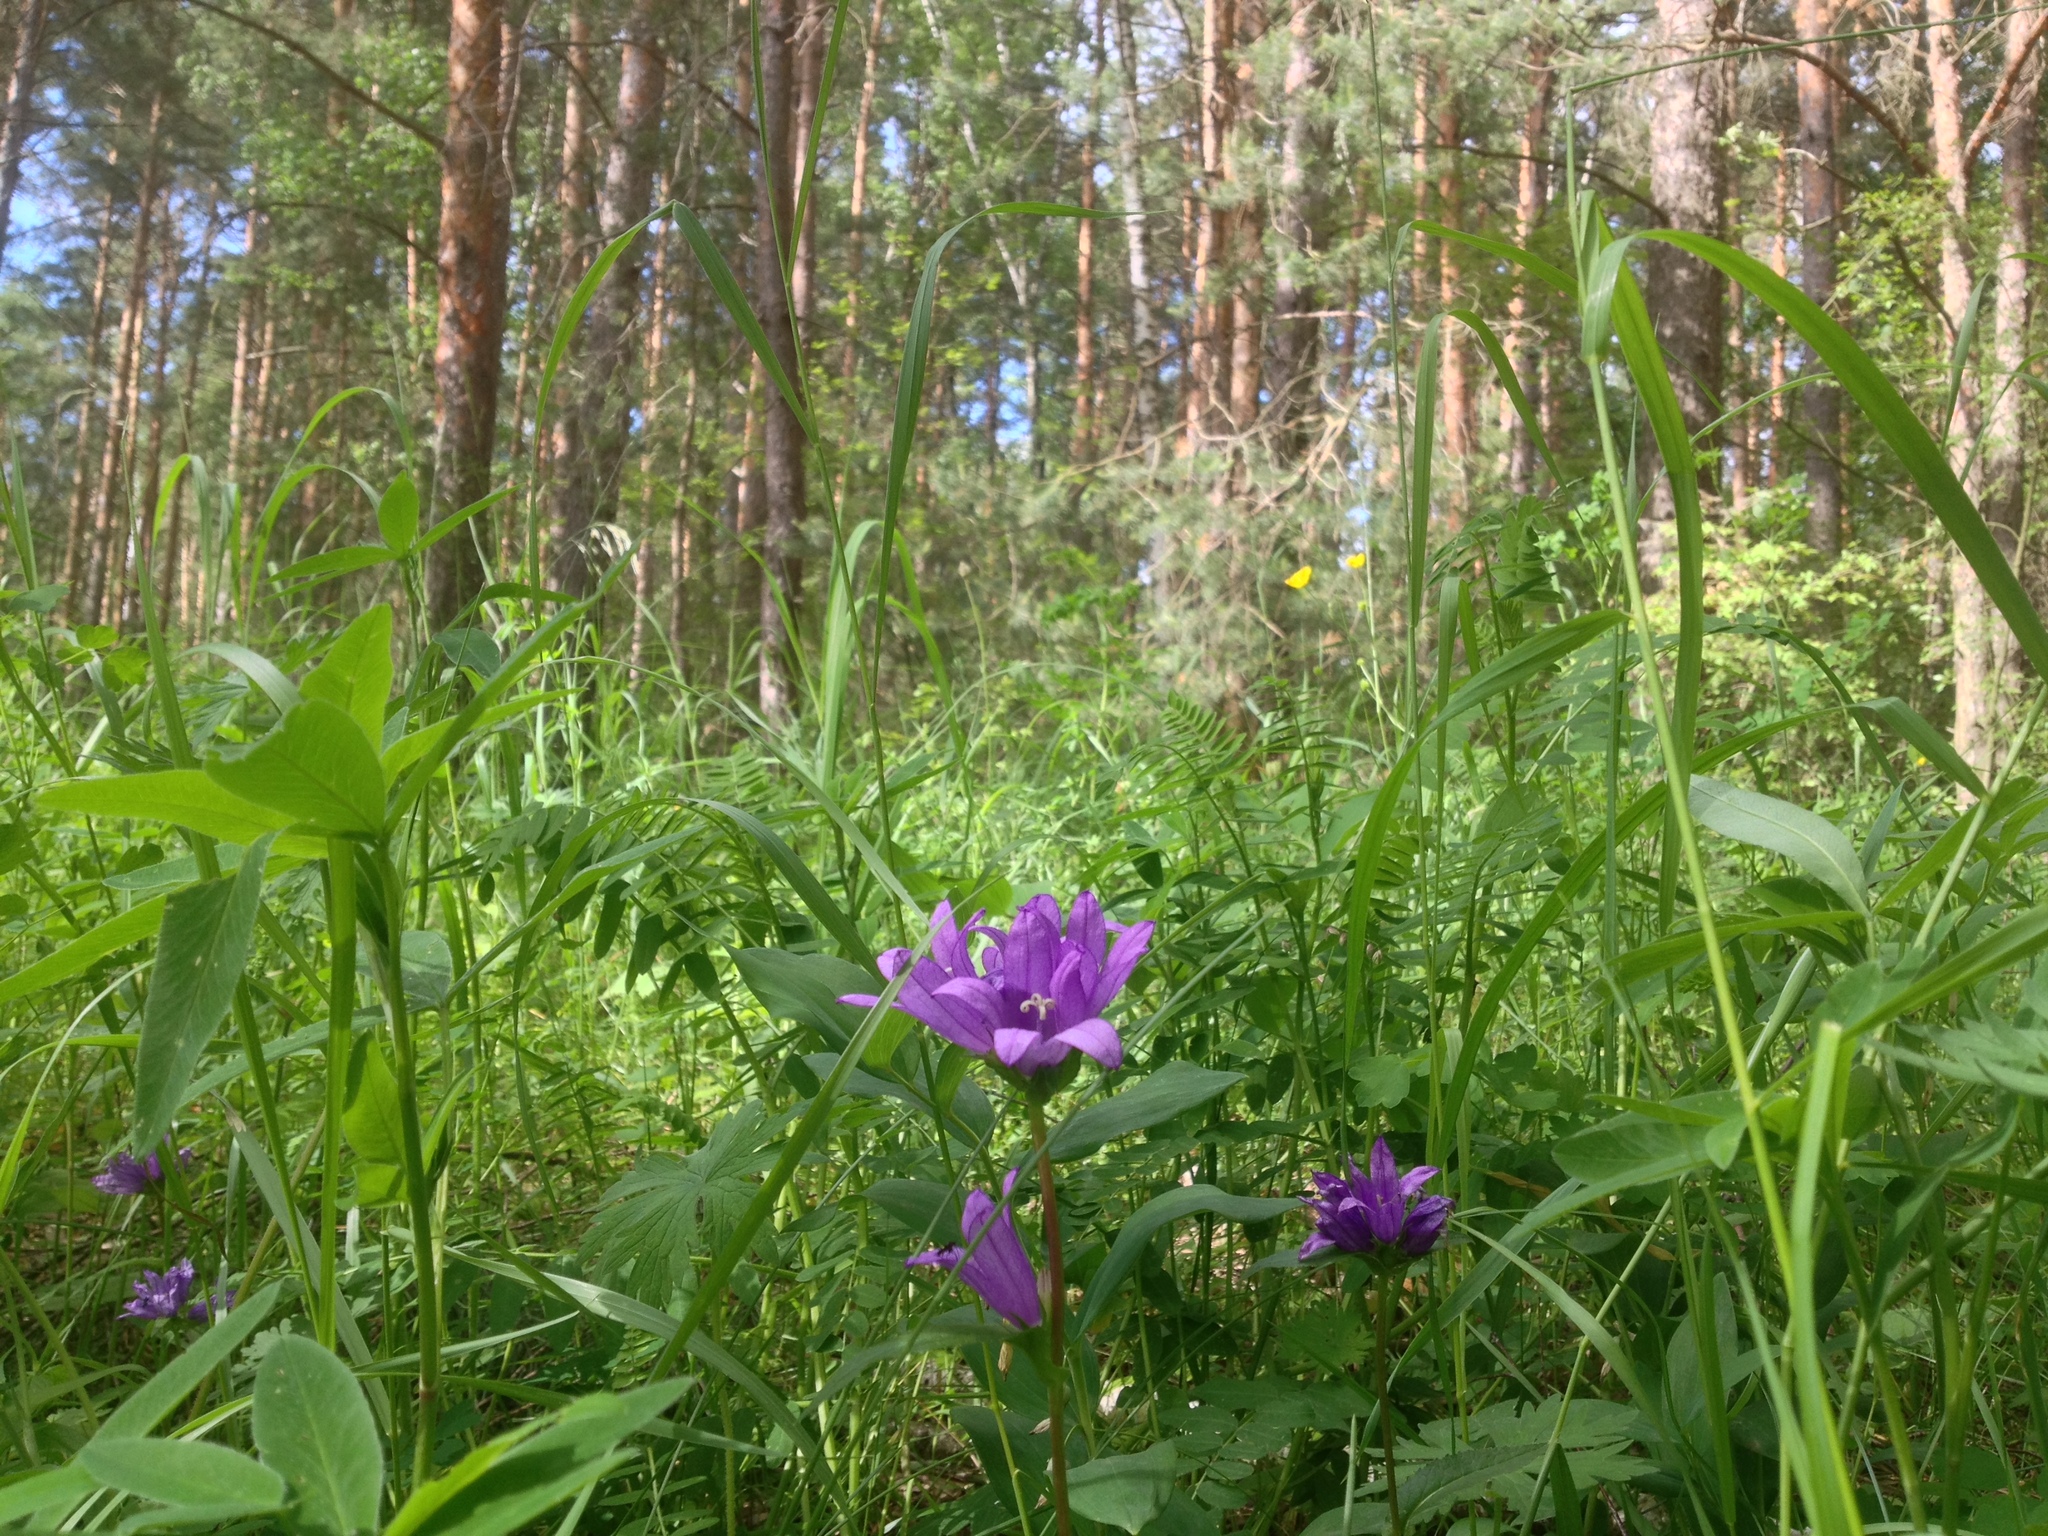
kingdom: Plantae
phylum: Tracheophyta
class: Magnoliopsida
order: Asterales
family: Campanulaceae
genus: Campanula
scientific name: Campanula glomerata
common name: Clustered bellflower
